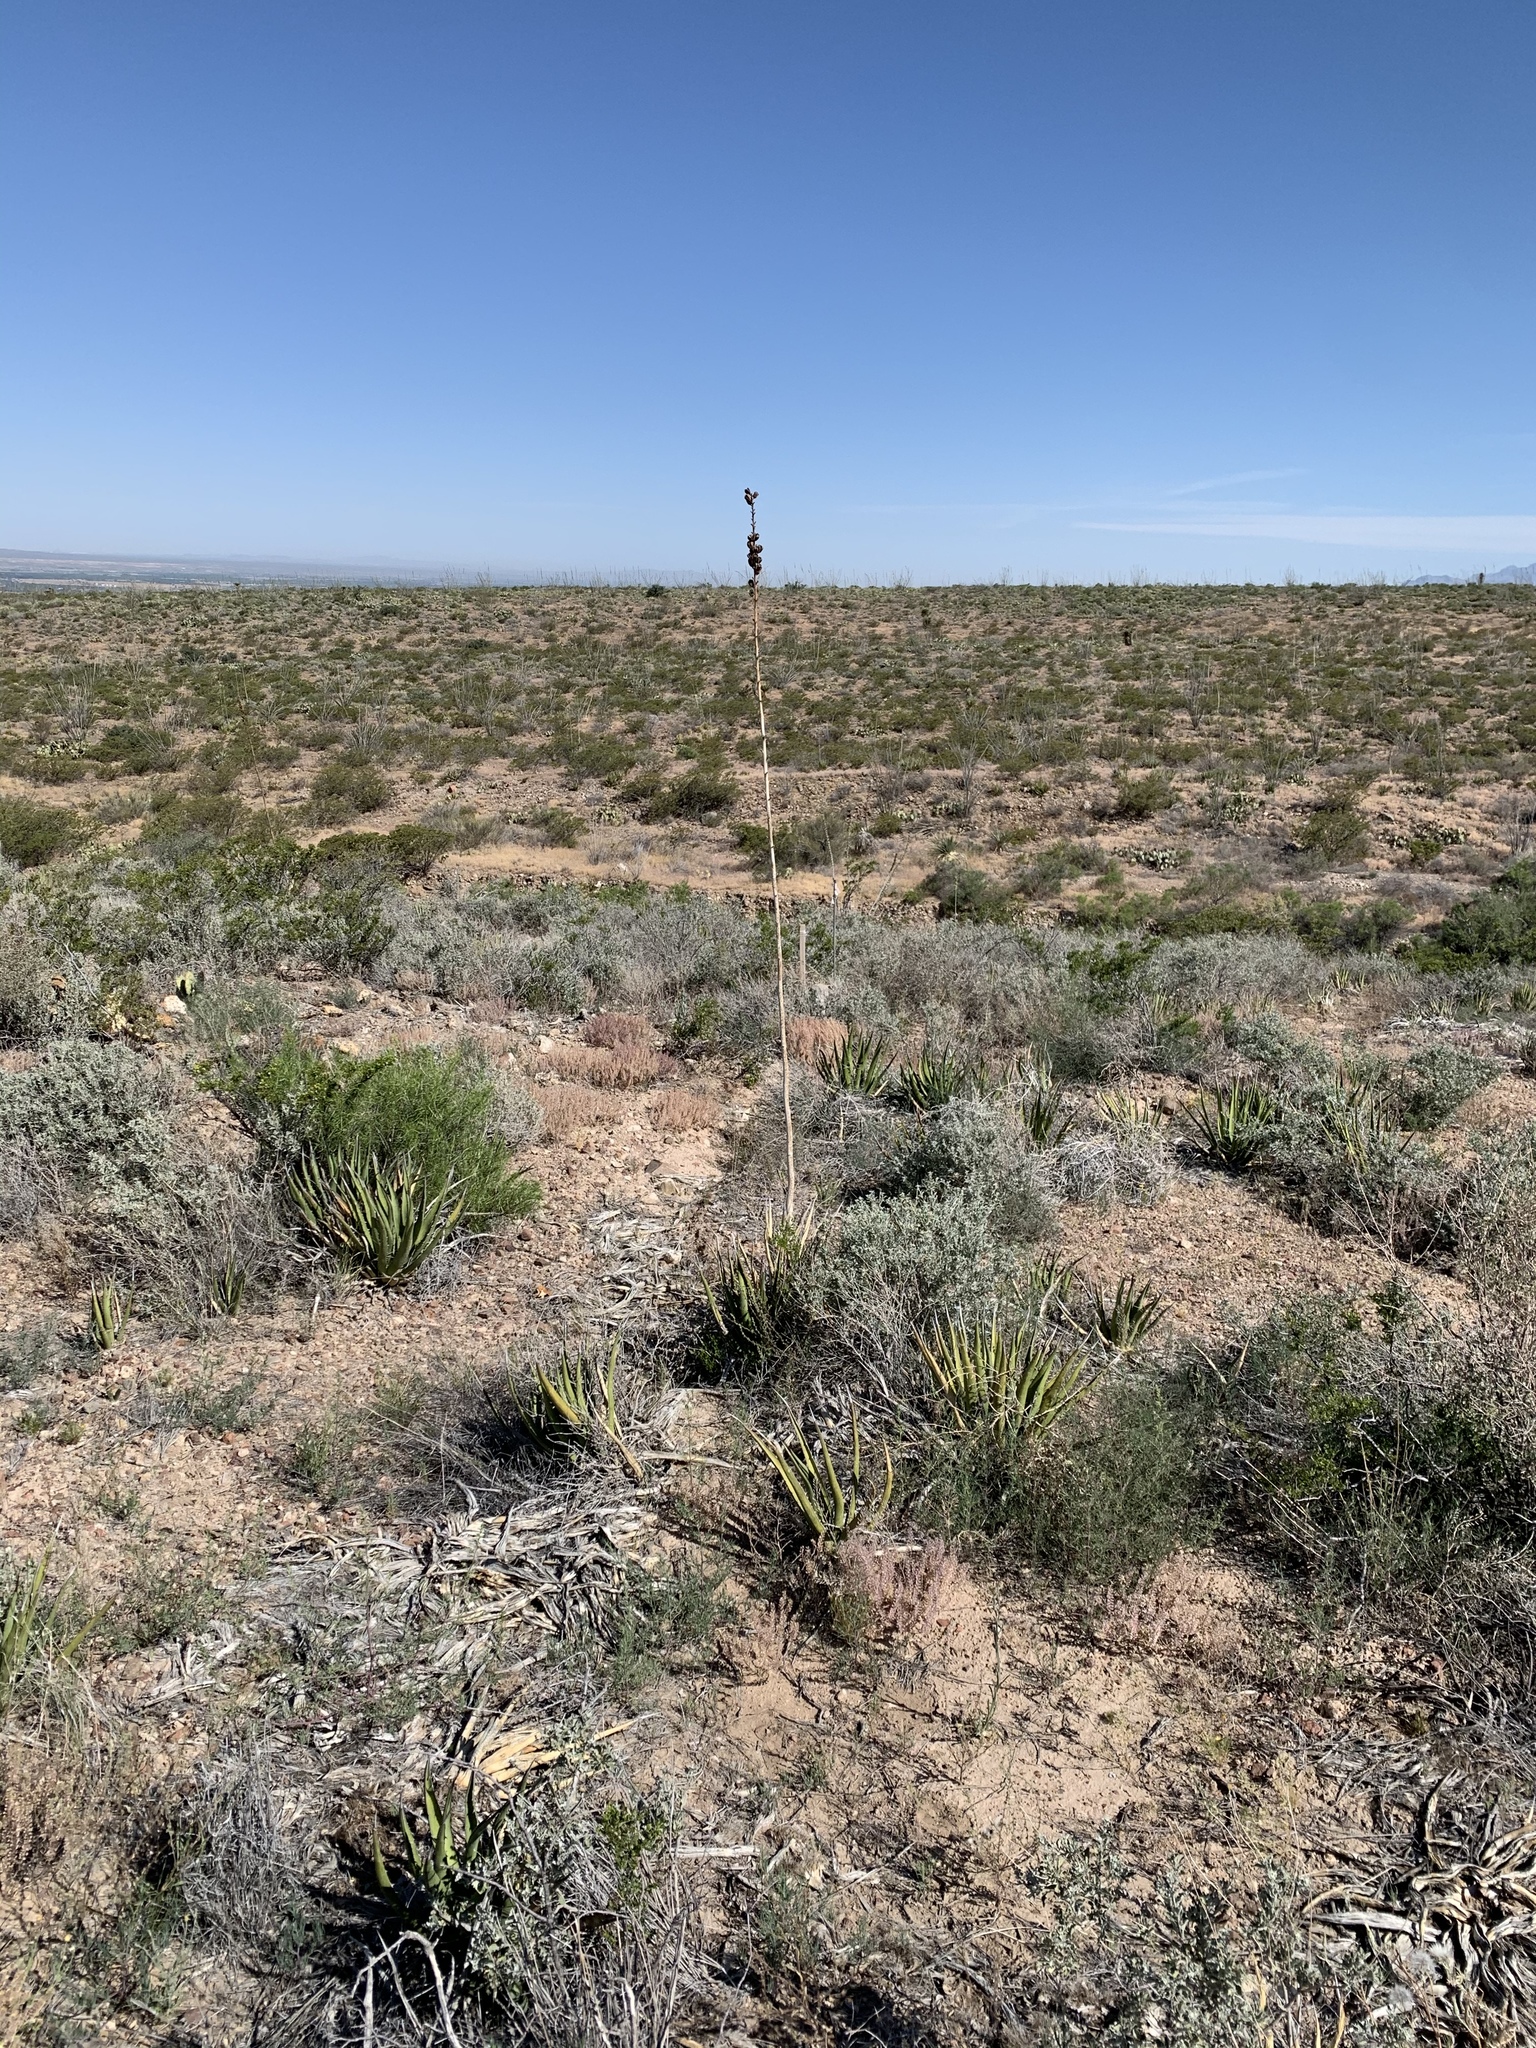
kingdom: Plantae
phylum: Tracheophyta
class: Liliopsida
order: Asparagales
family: Asparagaceae
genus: Agave
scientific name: Agave lechuguilla
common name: Lecheguilla agave
